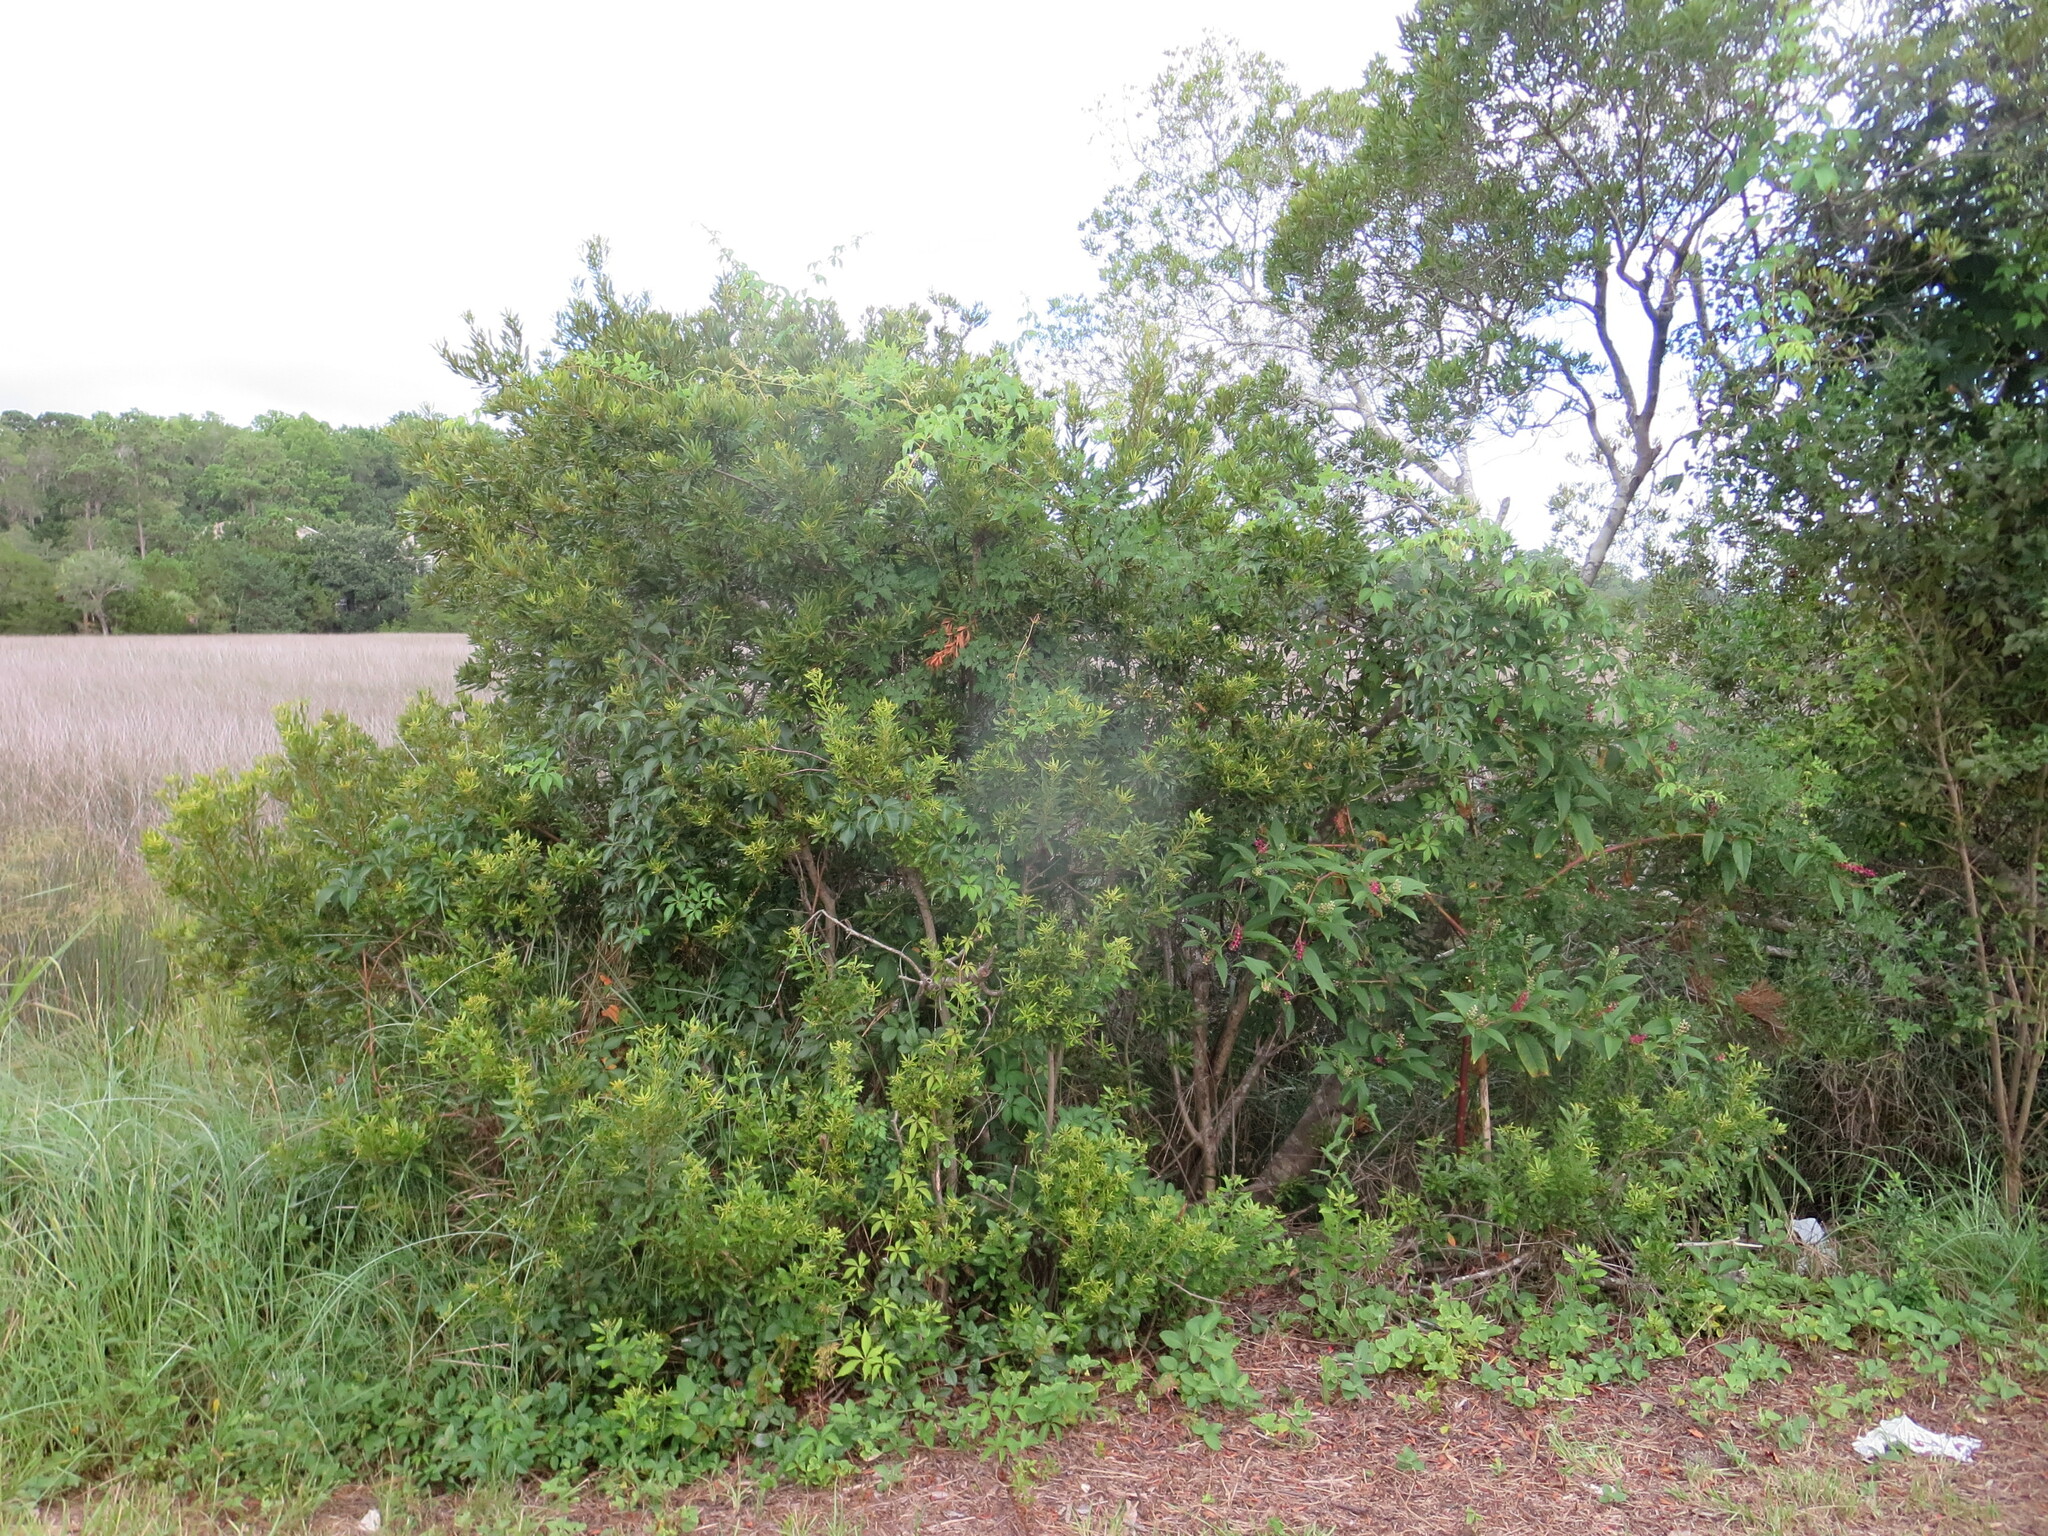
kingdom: Plantae
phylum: Tracheophyta
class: Magnoliopsida
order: Fagales
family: Myricaceae
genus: Morella
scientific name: Morella cerifera
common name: Wax myrtle
